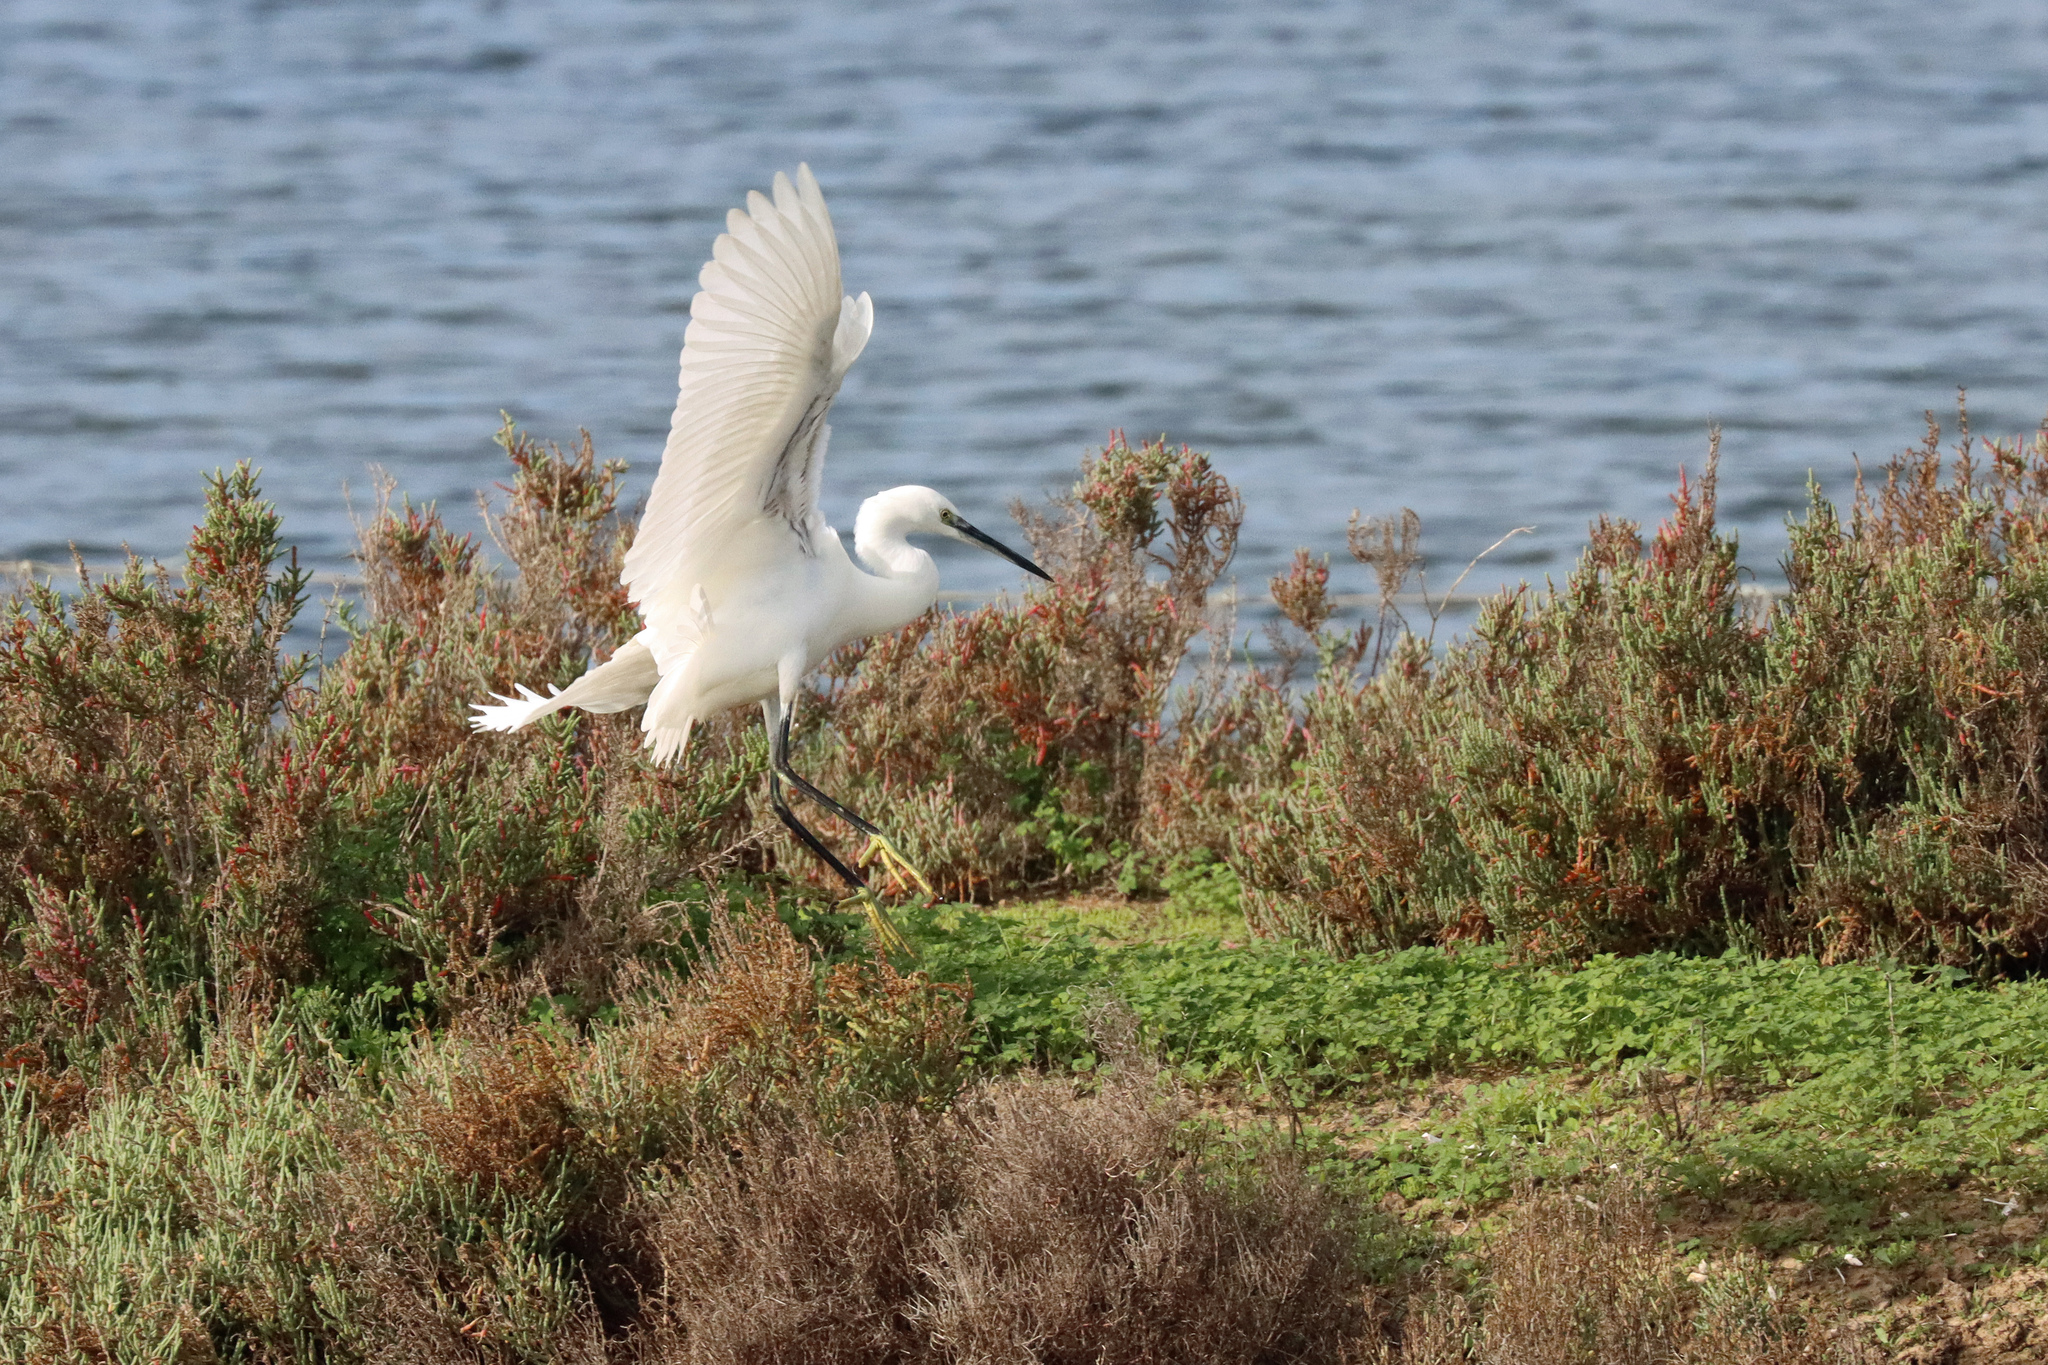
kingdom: Animalia
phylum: Chordata
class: Aves
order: Pelecaniformes
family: Ardeidae
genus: Egretta
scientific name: Egretta garzetta
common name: Little egret
